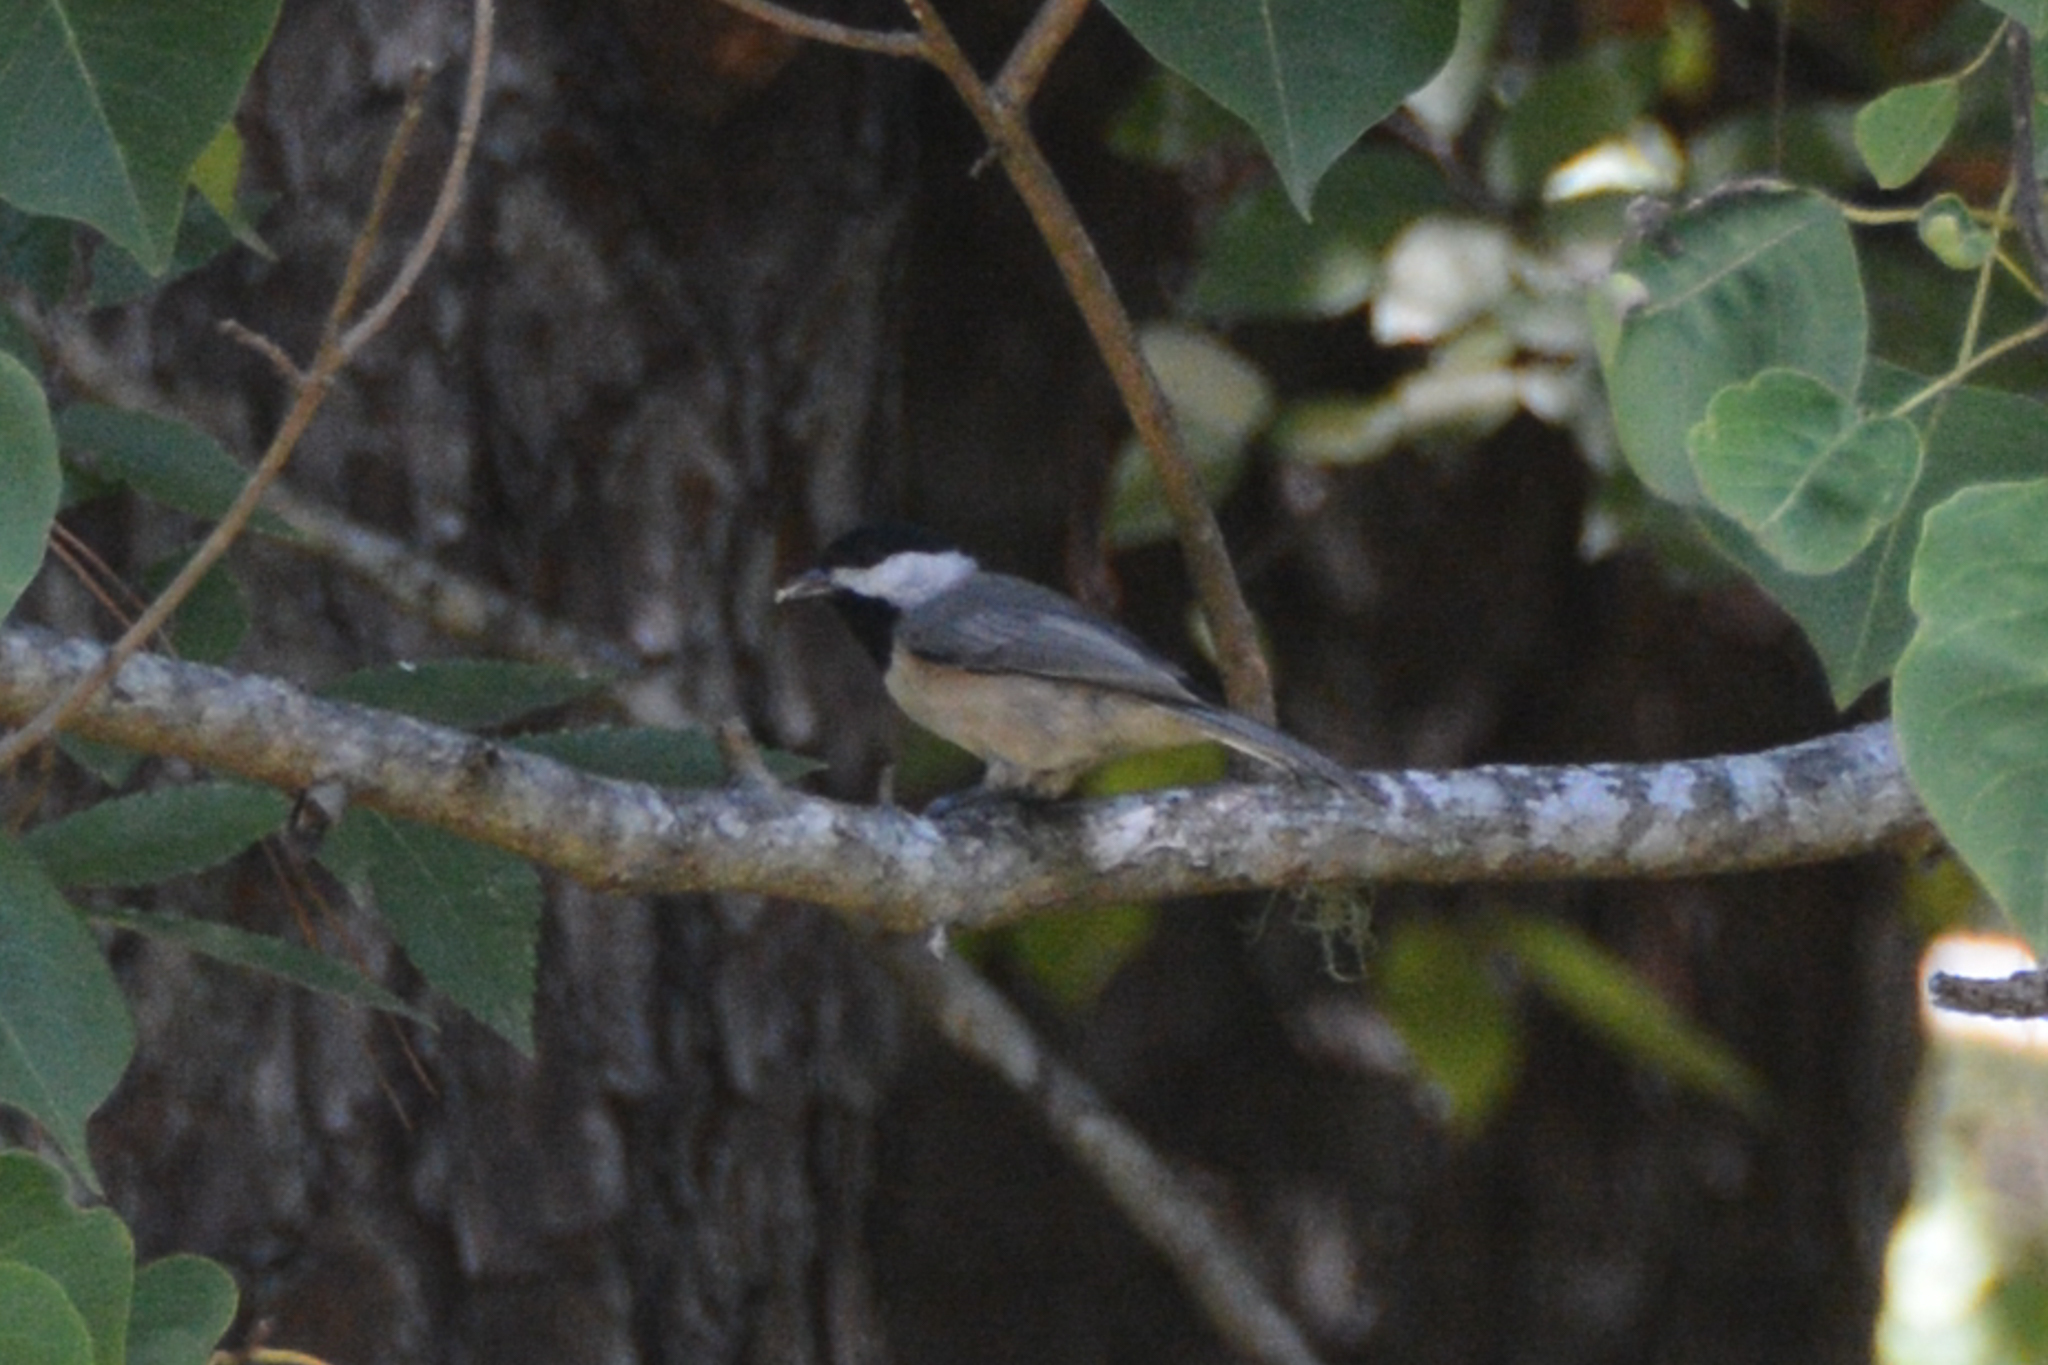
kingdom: Animalia
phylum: Chordata
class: Aves
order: Passeriformes
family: Paridae
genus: Poecile
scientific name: Poecile carolinensis
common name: Carolina chickadee
